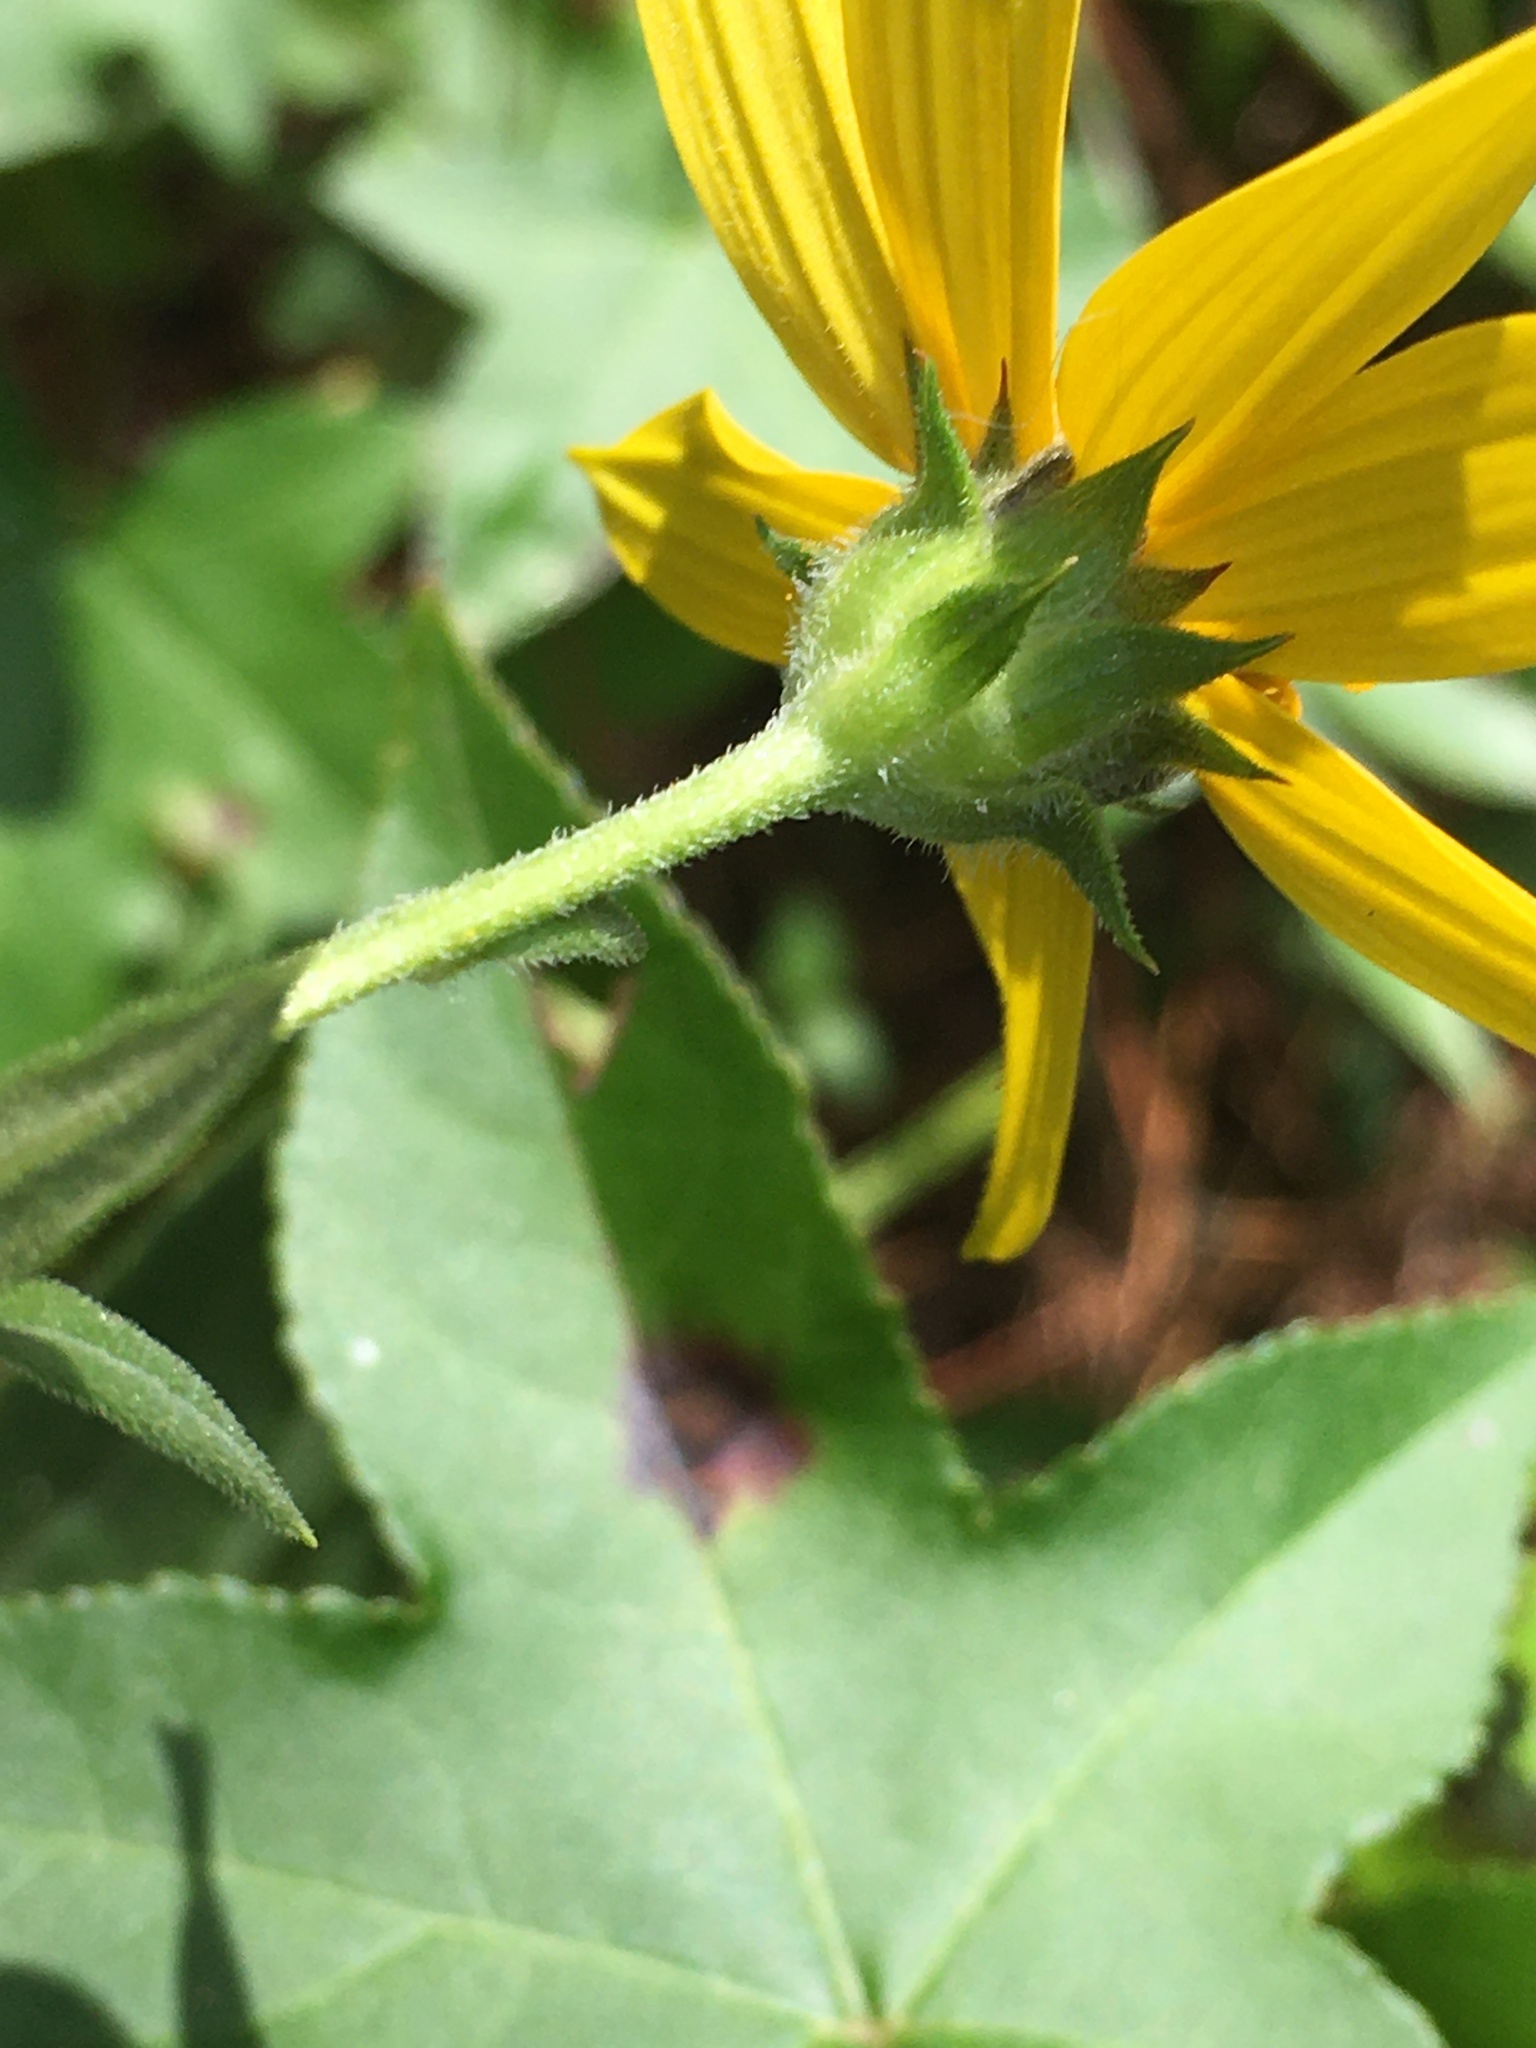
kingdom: Plantae
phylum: Tracheophyta
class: Magnoliopsida
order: Asterales
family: Asteraceae
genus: Helianthus
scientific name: Helianthus schweinitzii
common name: Schweinitz's sunflower
